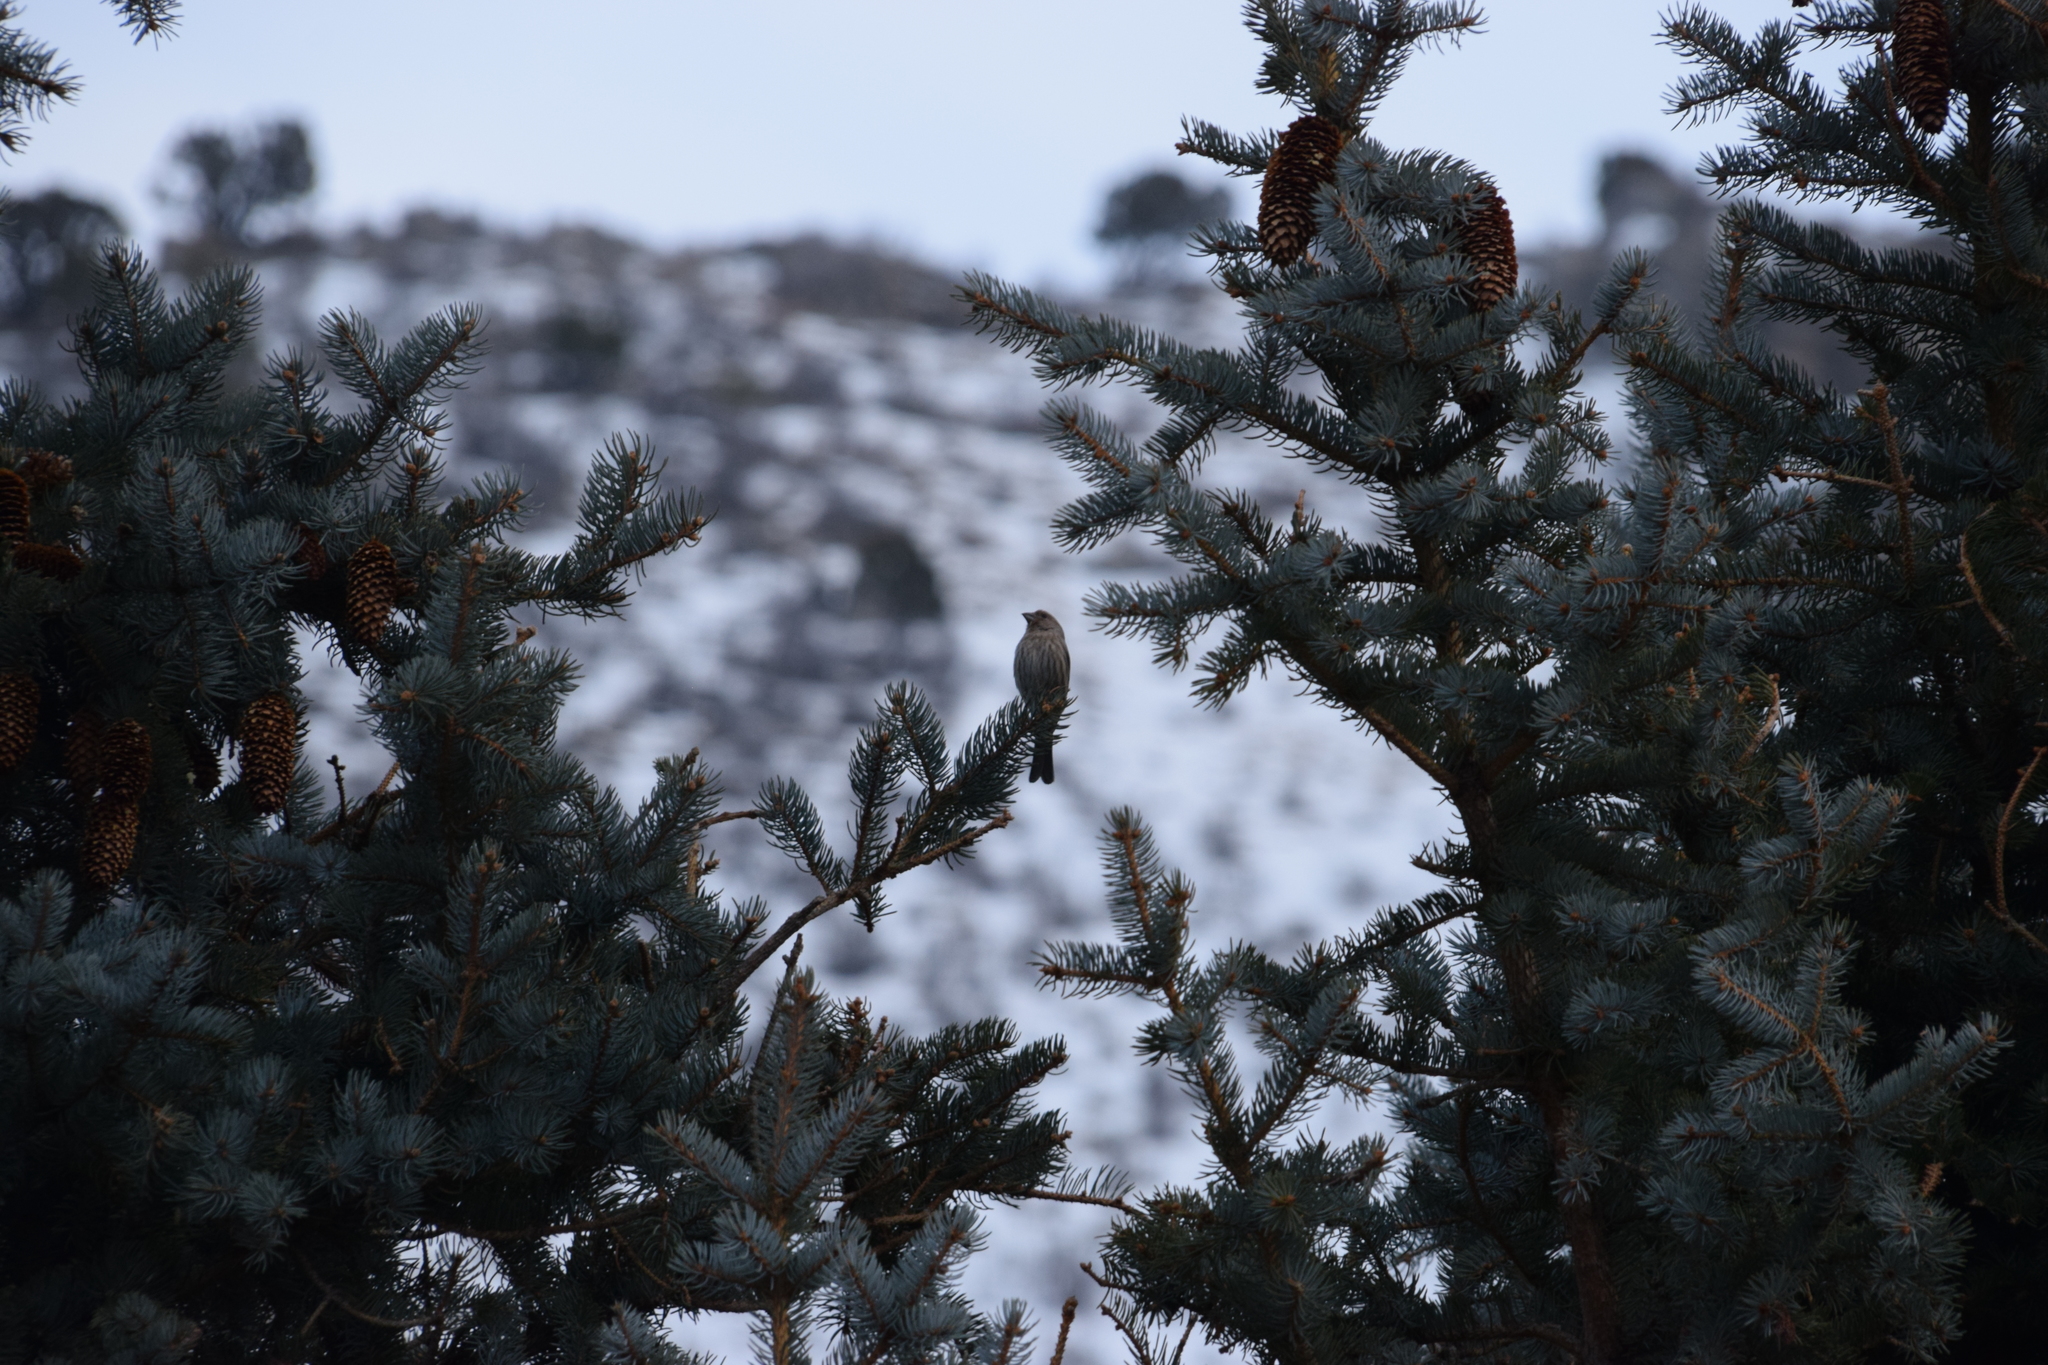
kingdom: Animalia
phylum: Chordata
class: Aves
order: Passeriformes
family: Fringillidae
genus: Haemorhous
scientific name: Haemorhous mexicanus
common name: House finch
